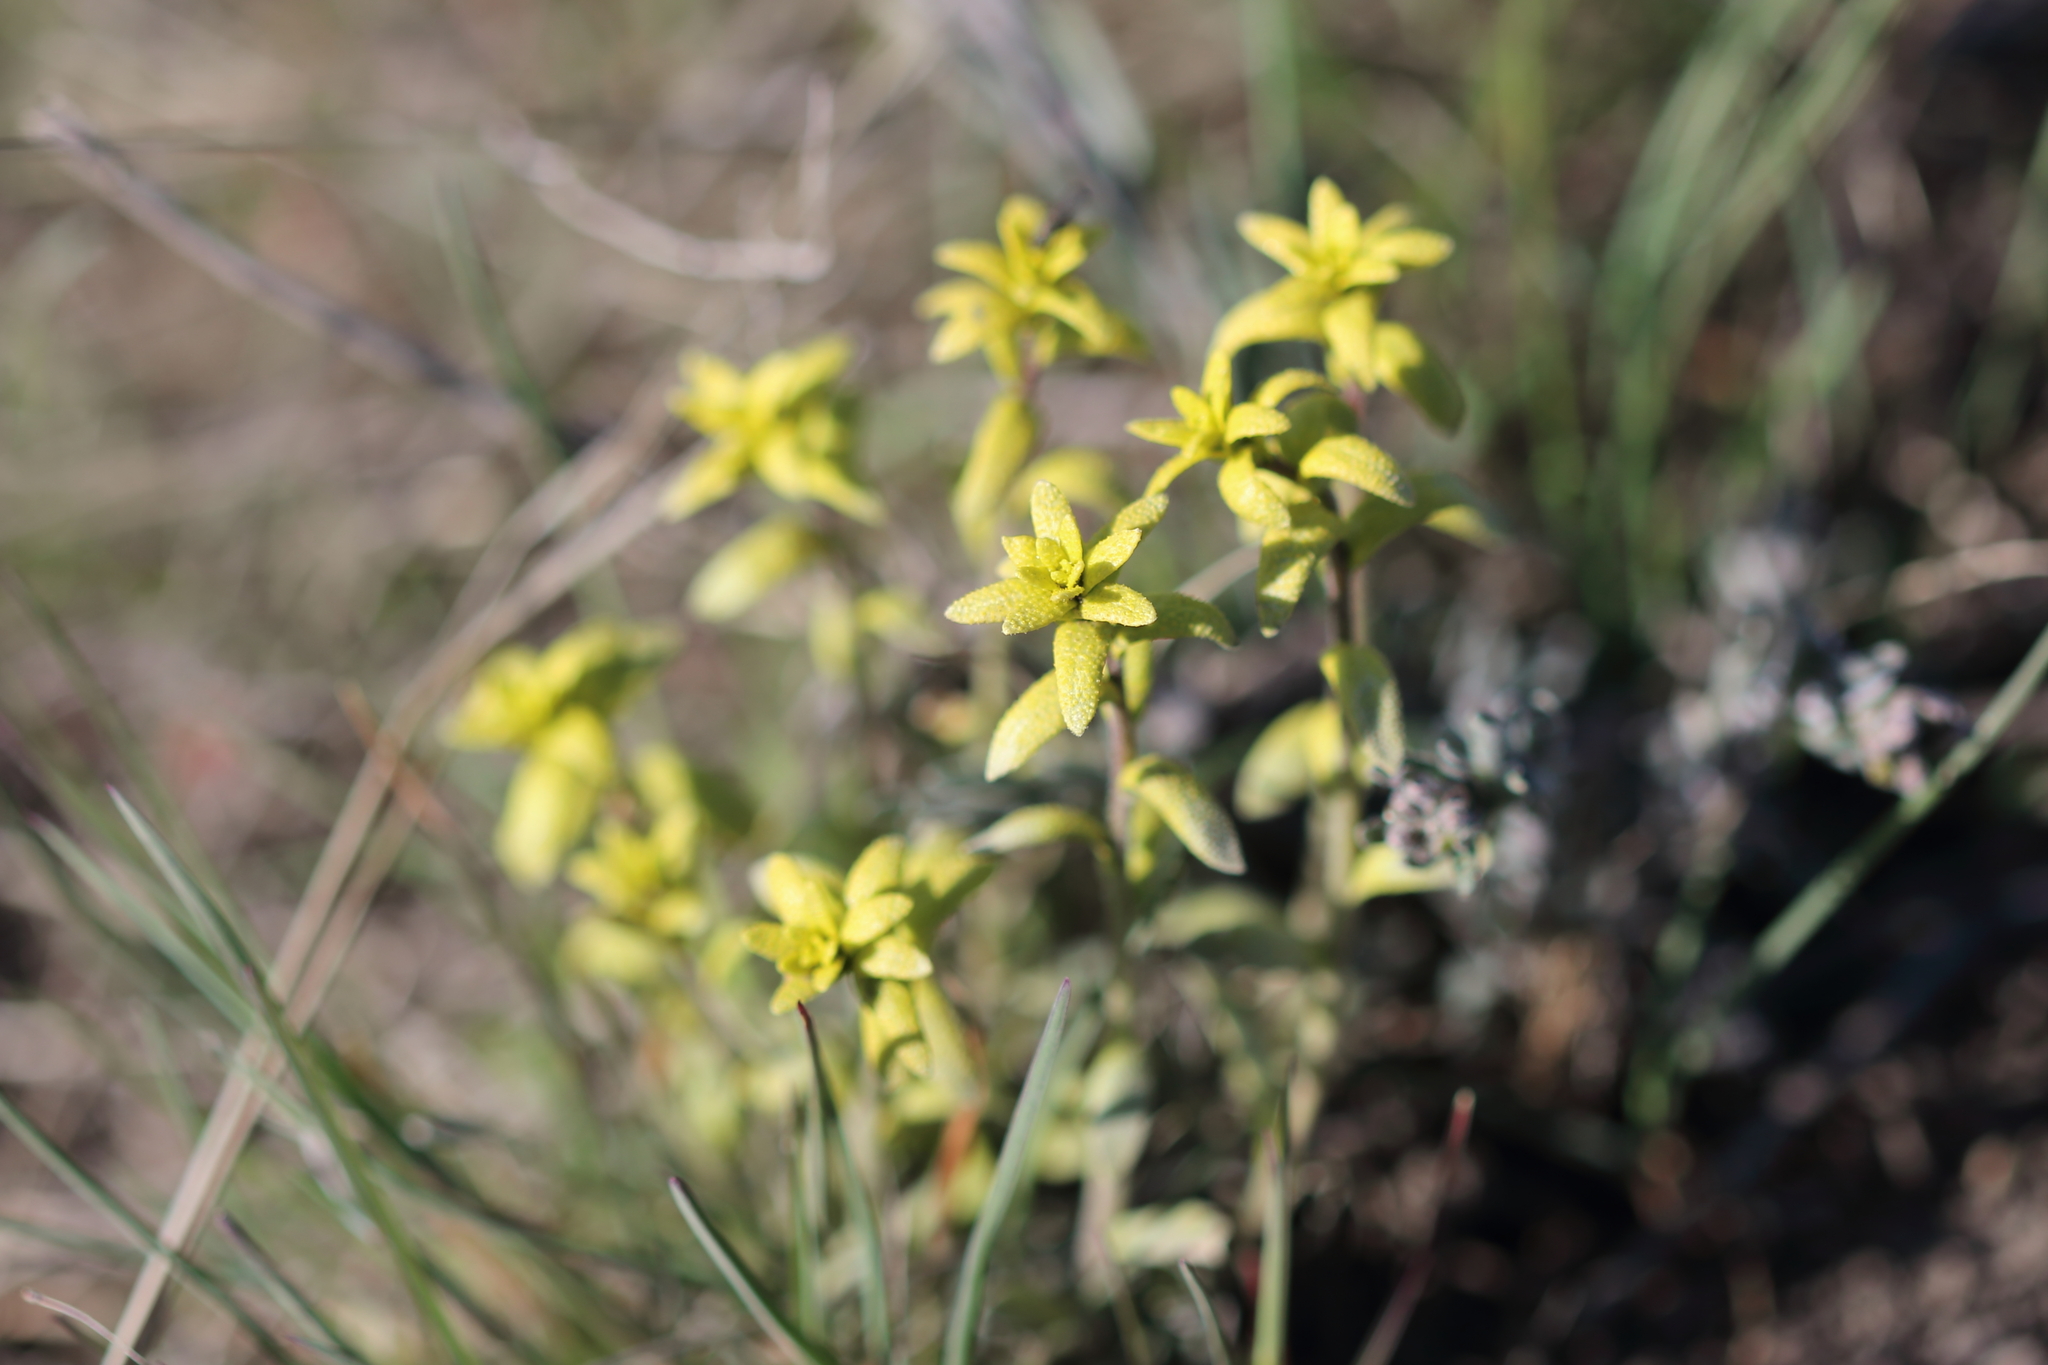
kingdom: Fungi
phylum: Basidiomycota
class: Pucciniomycetes
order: Pucciniales
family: Pucciniaceae
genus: Puccinia
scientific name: Puccinia monoica
